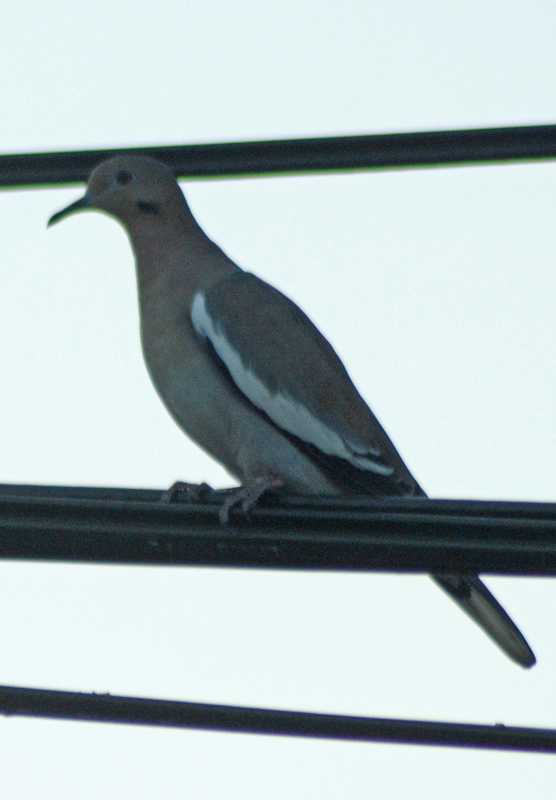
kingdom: Animalia
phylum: Chordata
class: Aves
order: Columbiformes
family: Columbidae
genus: Zenaida
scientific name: Zenaida asiatica
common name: White-winged dove
